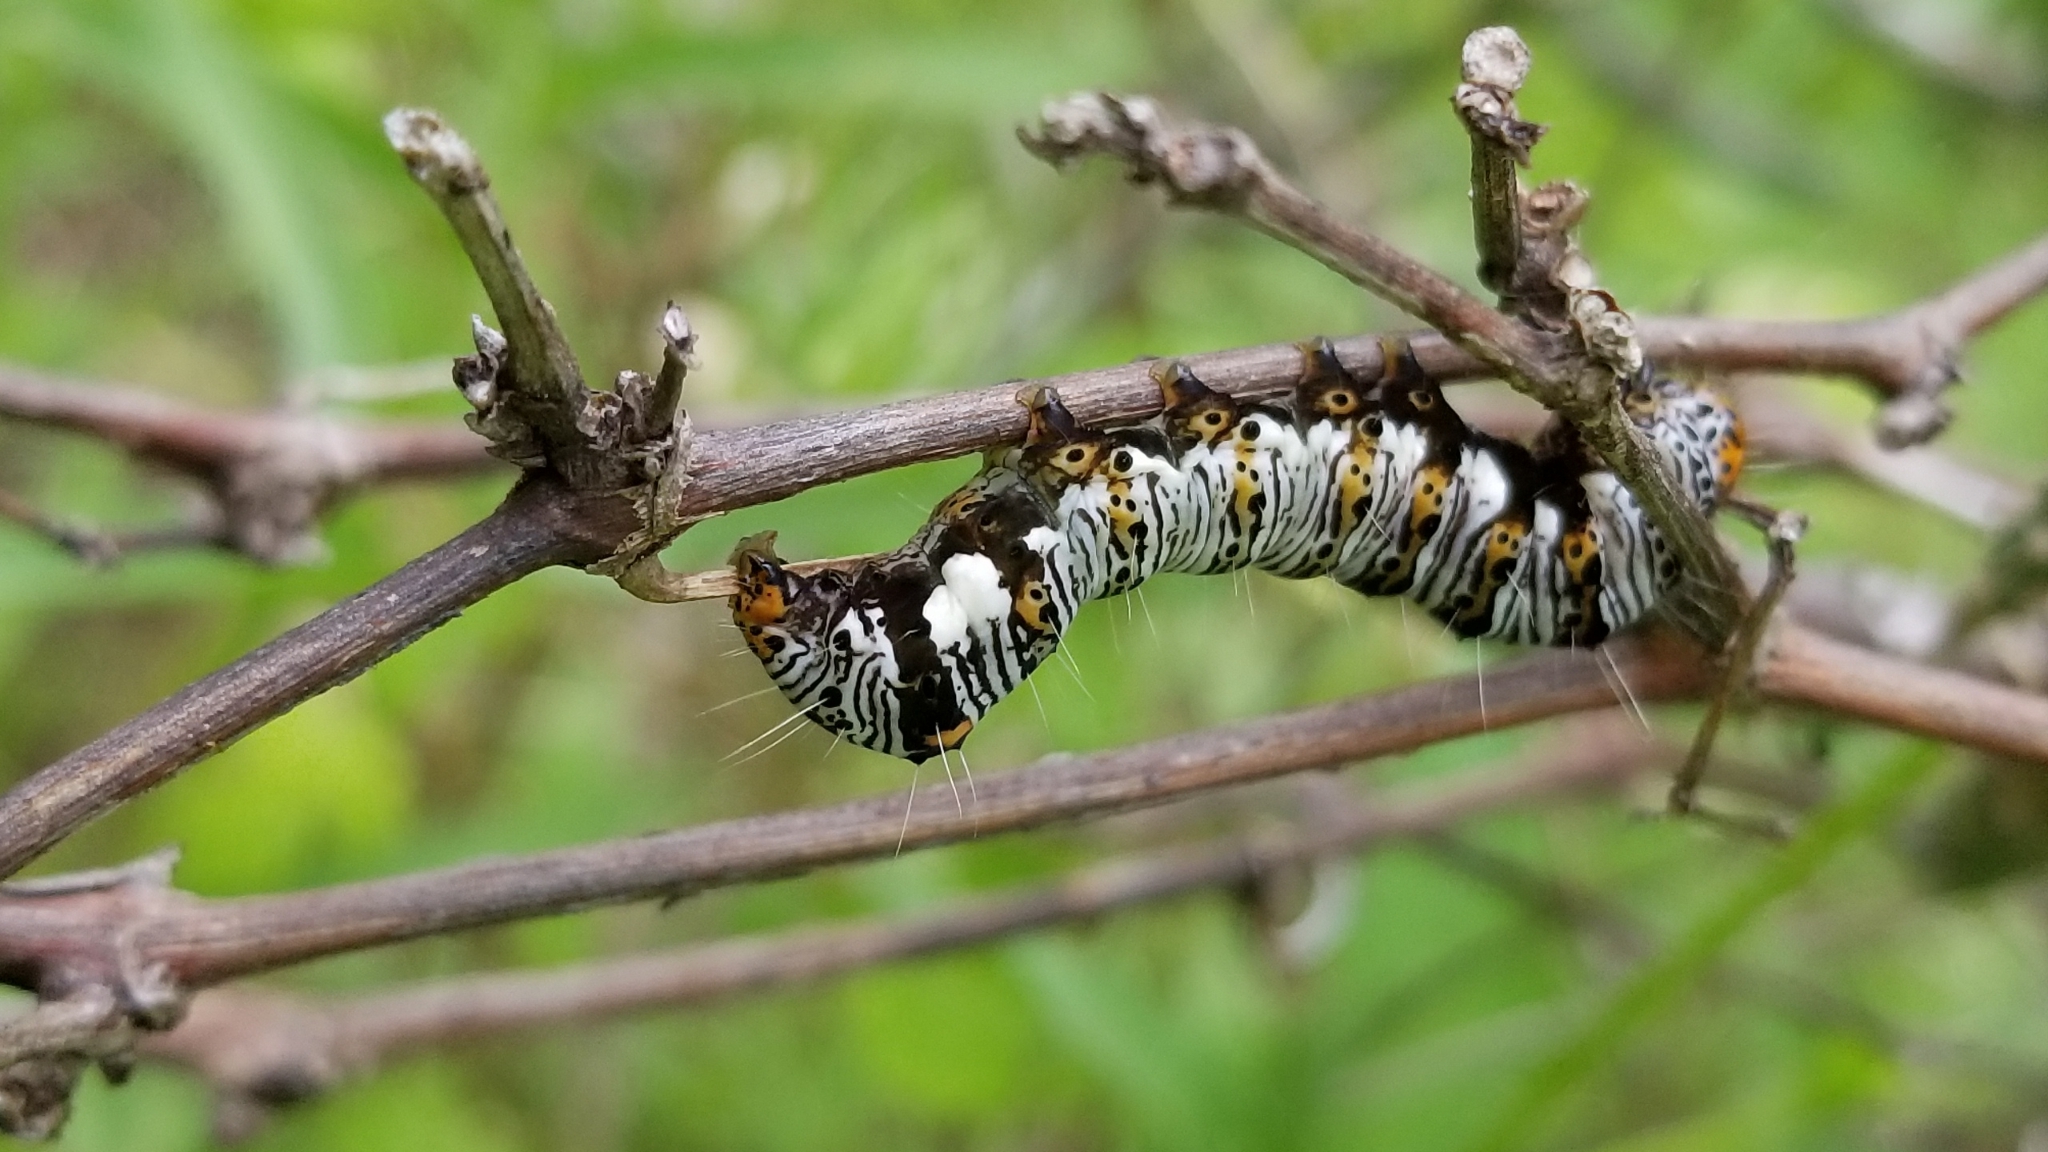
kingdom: Animalia
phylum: Arthropoda
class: Insecta
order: Lepidoptera
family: Noctuidae
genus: Alypia
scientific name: Alypia octomaculata
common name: Eight-spotted forester
